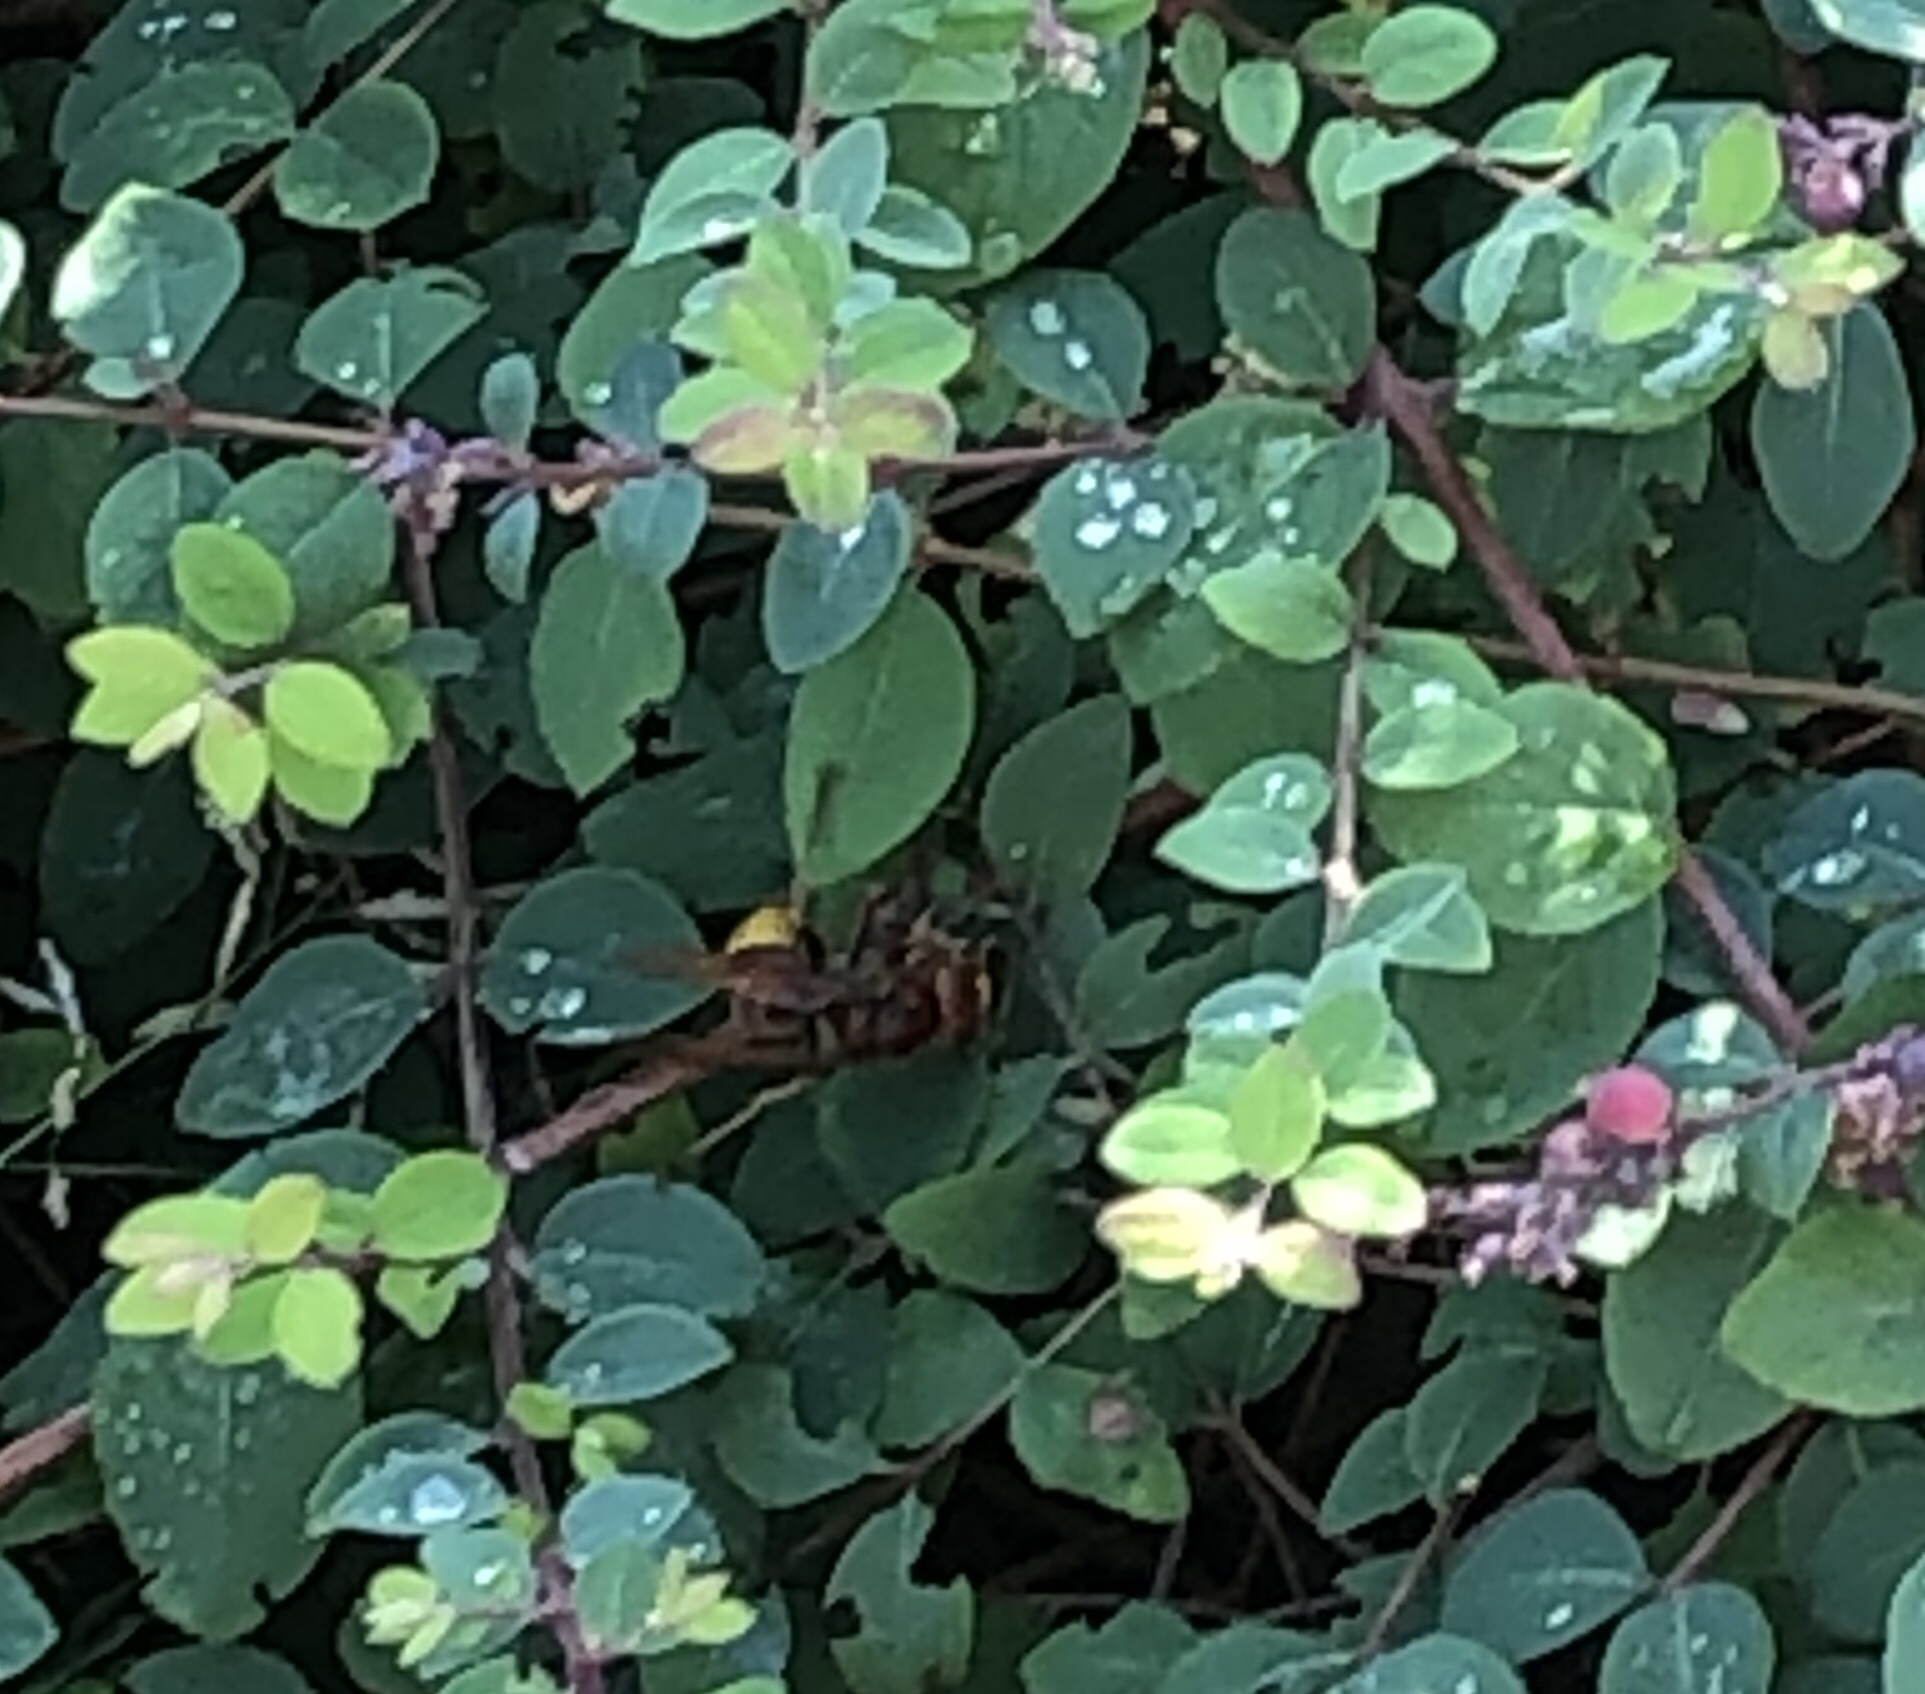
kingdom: Animalia
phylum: Arthropoda
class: Insecta
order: Hymenoptera
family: Vespidae
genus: Vespa
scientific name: Vespa crabro
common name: Hornet
